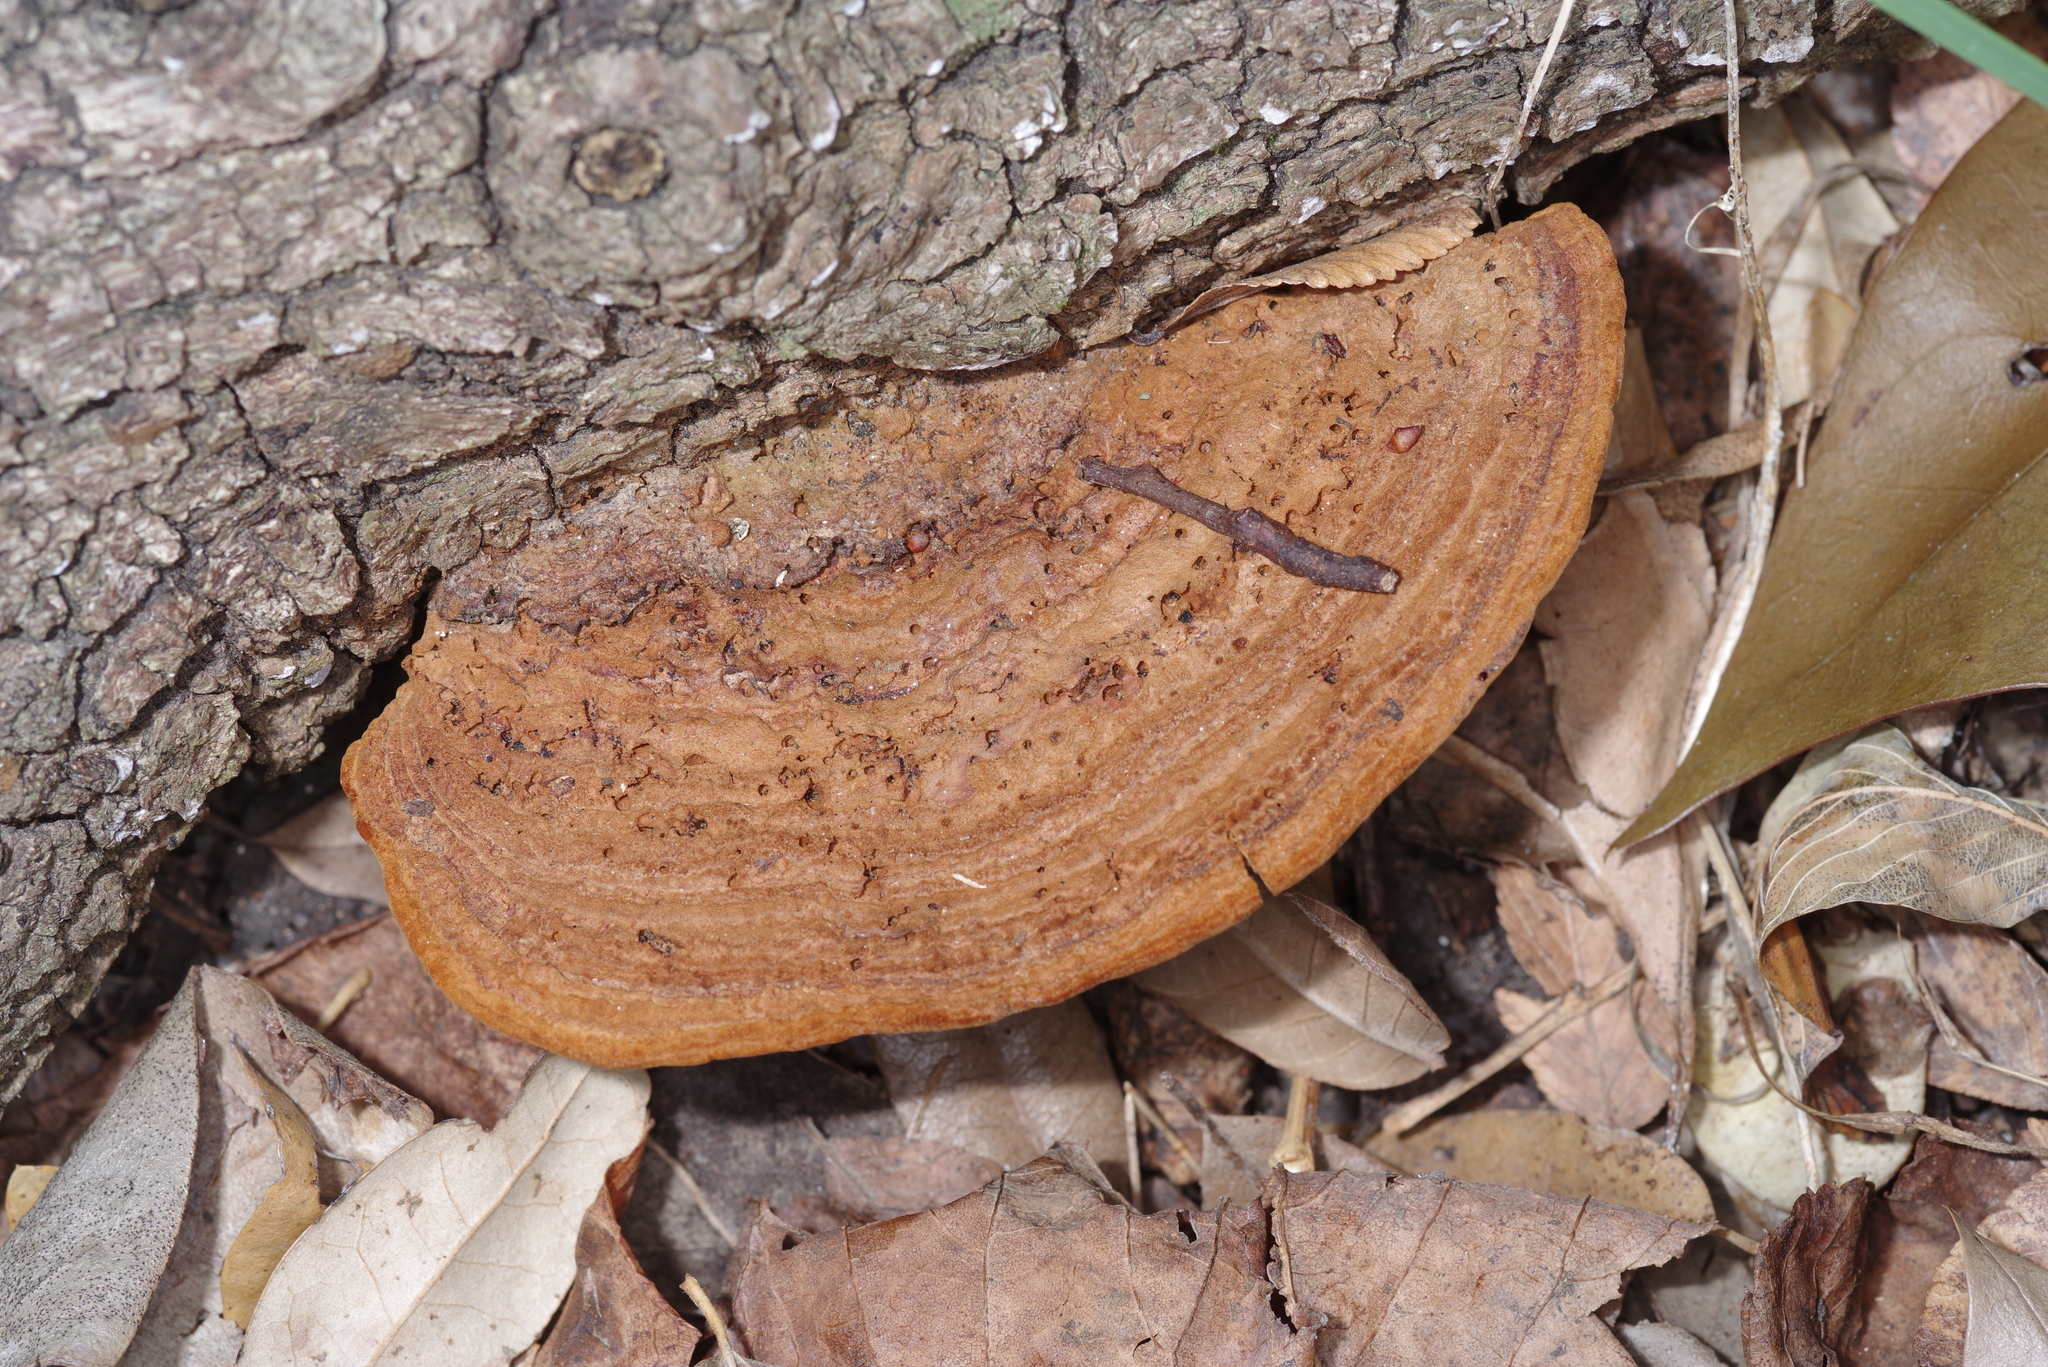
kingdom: Fungi
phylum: Basidiomycota
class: Agaricomycetes
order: Polyporales
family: Polyporaceae
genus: Trametes
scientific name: Trametes cubensis
